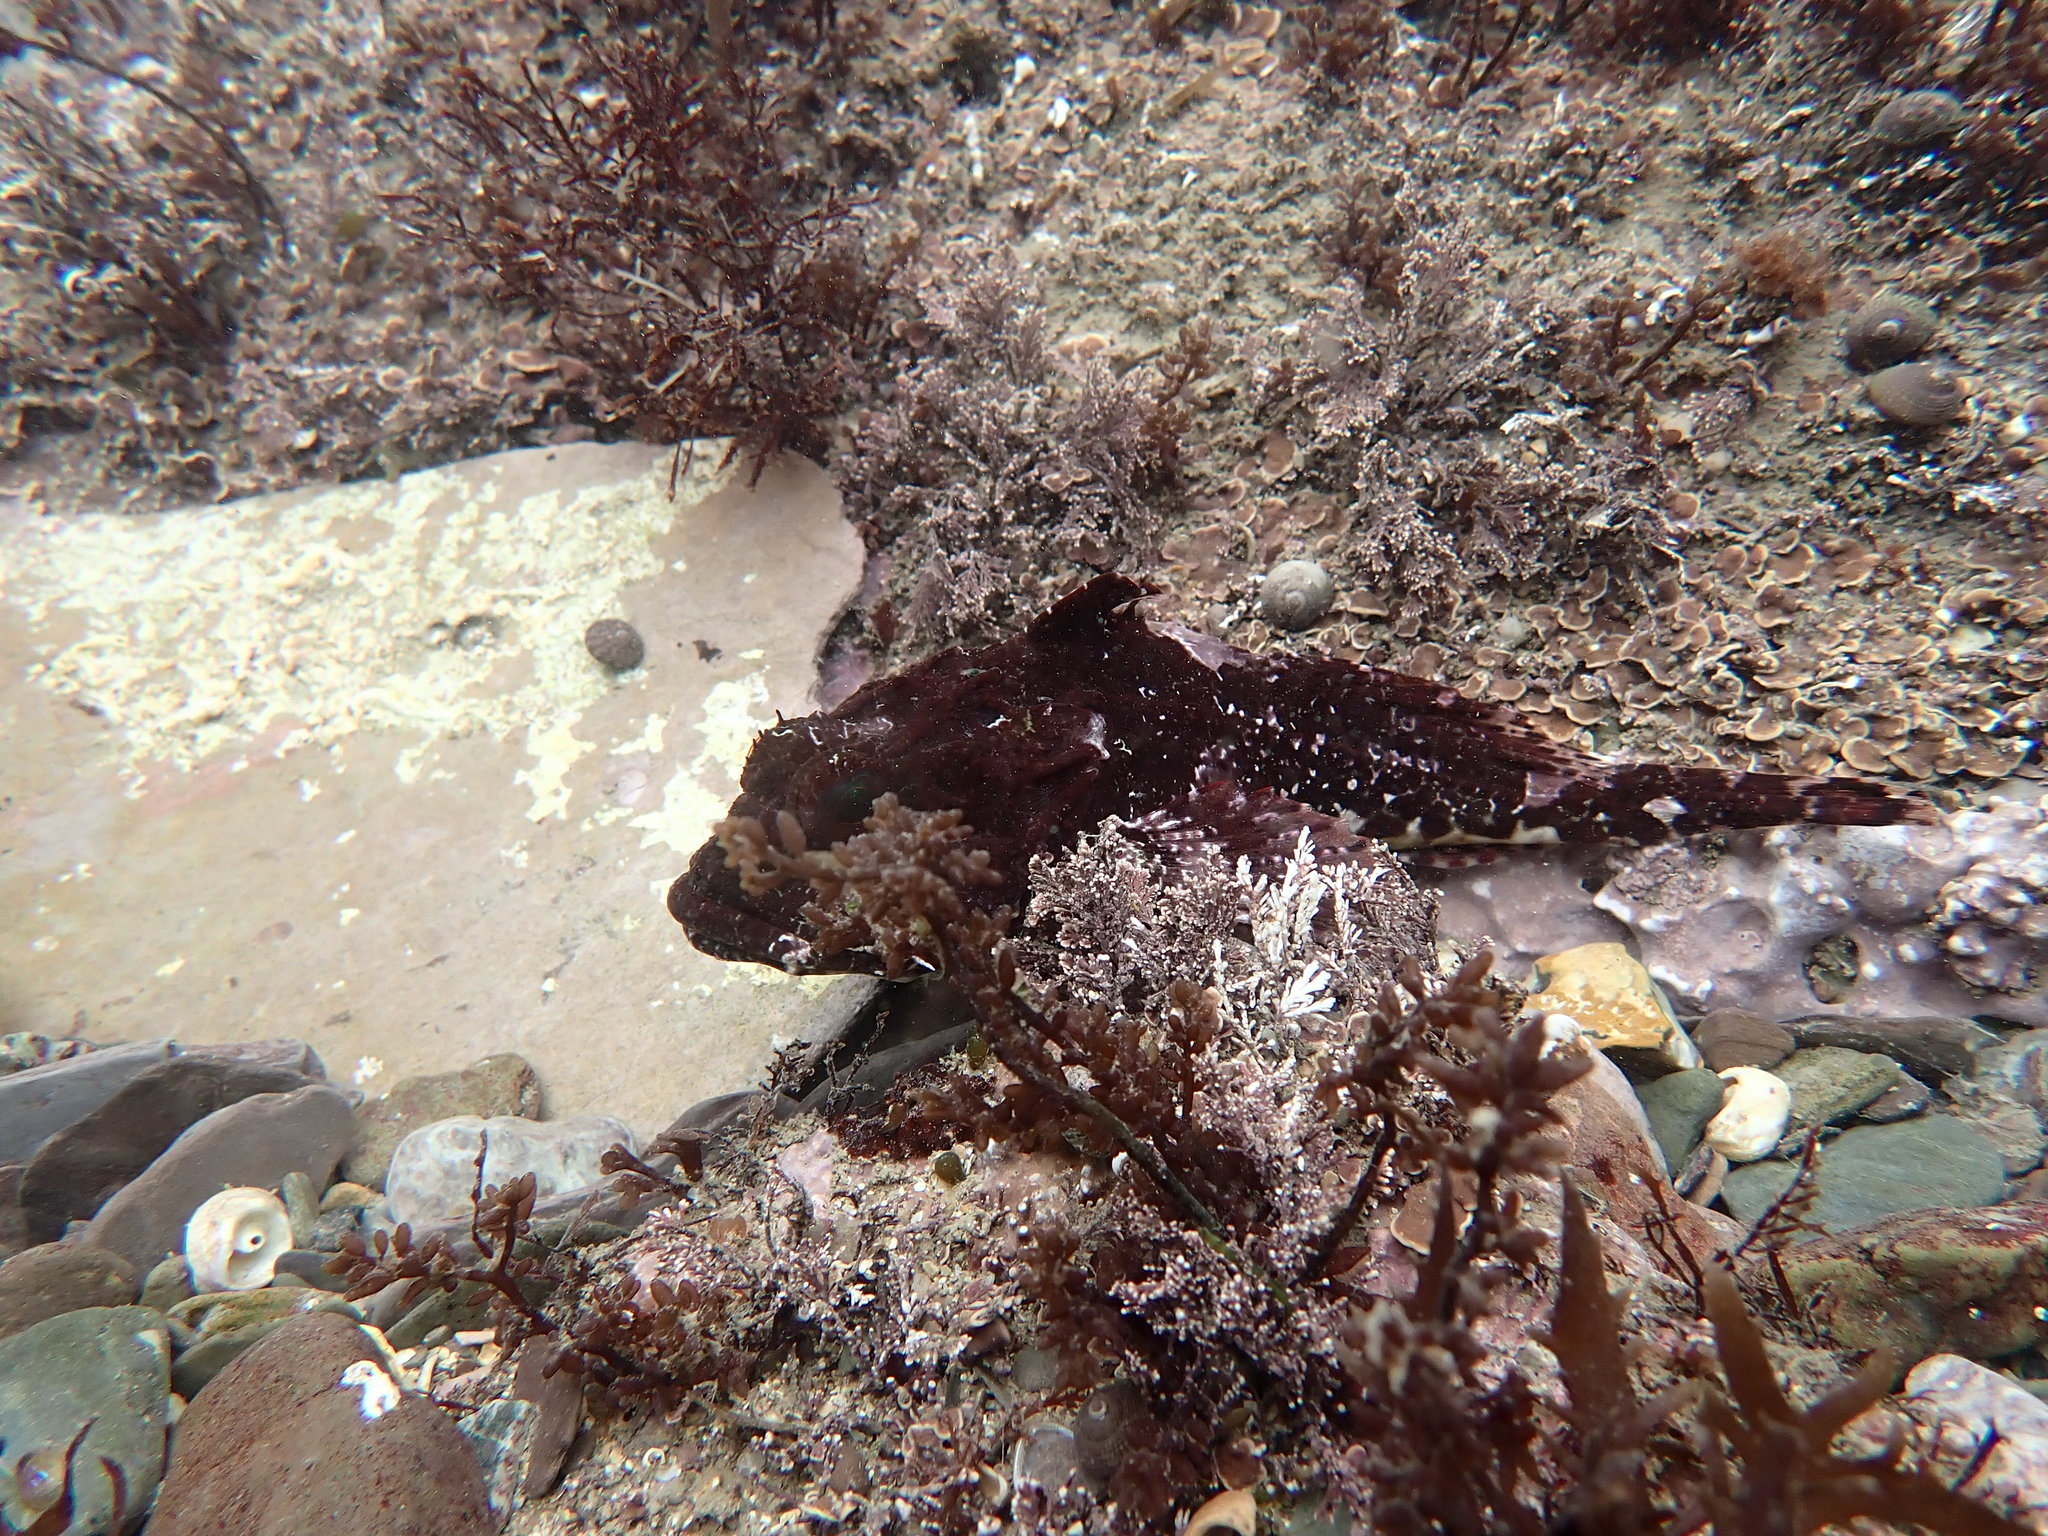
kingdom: Animalia
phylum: Chordata
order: Scorpaeniformes
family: Cottidae
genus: Taurulus
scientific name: Taurulus bubalis
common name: Sea scorpion
